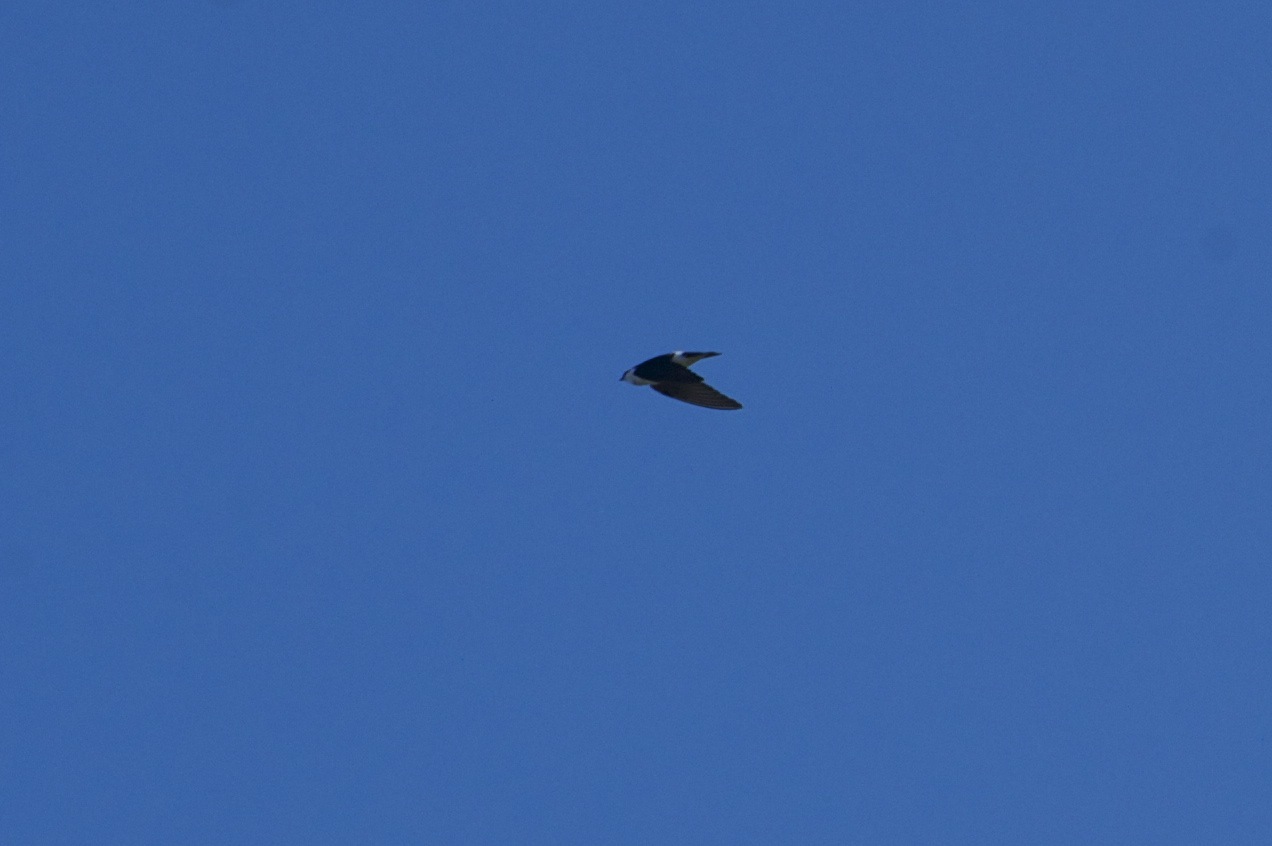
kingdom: Animalia
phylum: Chordata
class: Aves
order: Passeriformes
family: Hirundinidae
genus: Tachycineta
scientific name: Tachycineta thalassina
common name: Violet-green swallow
